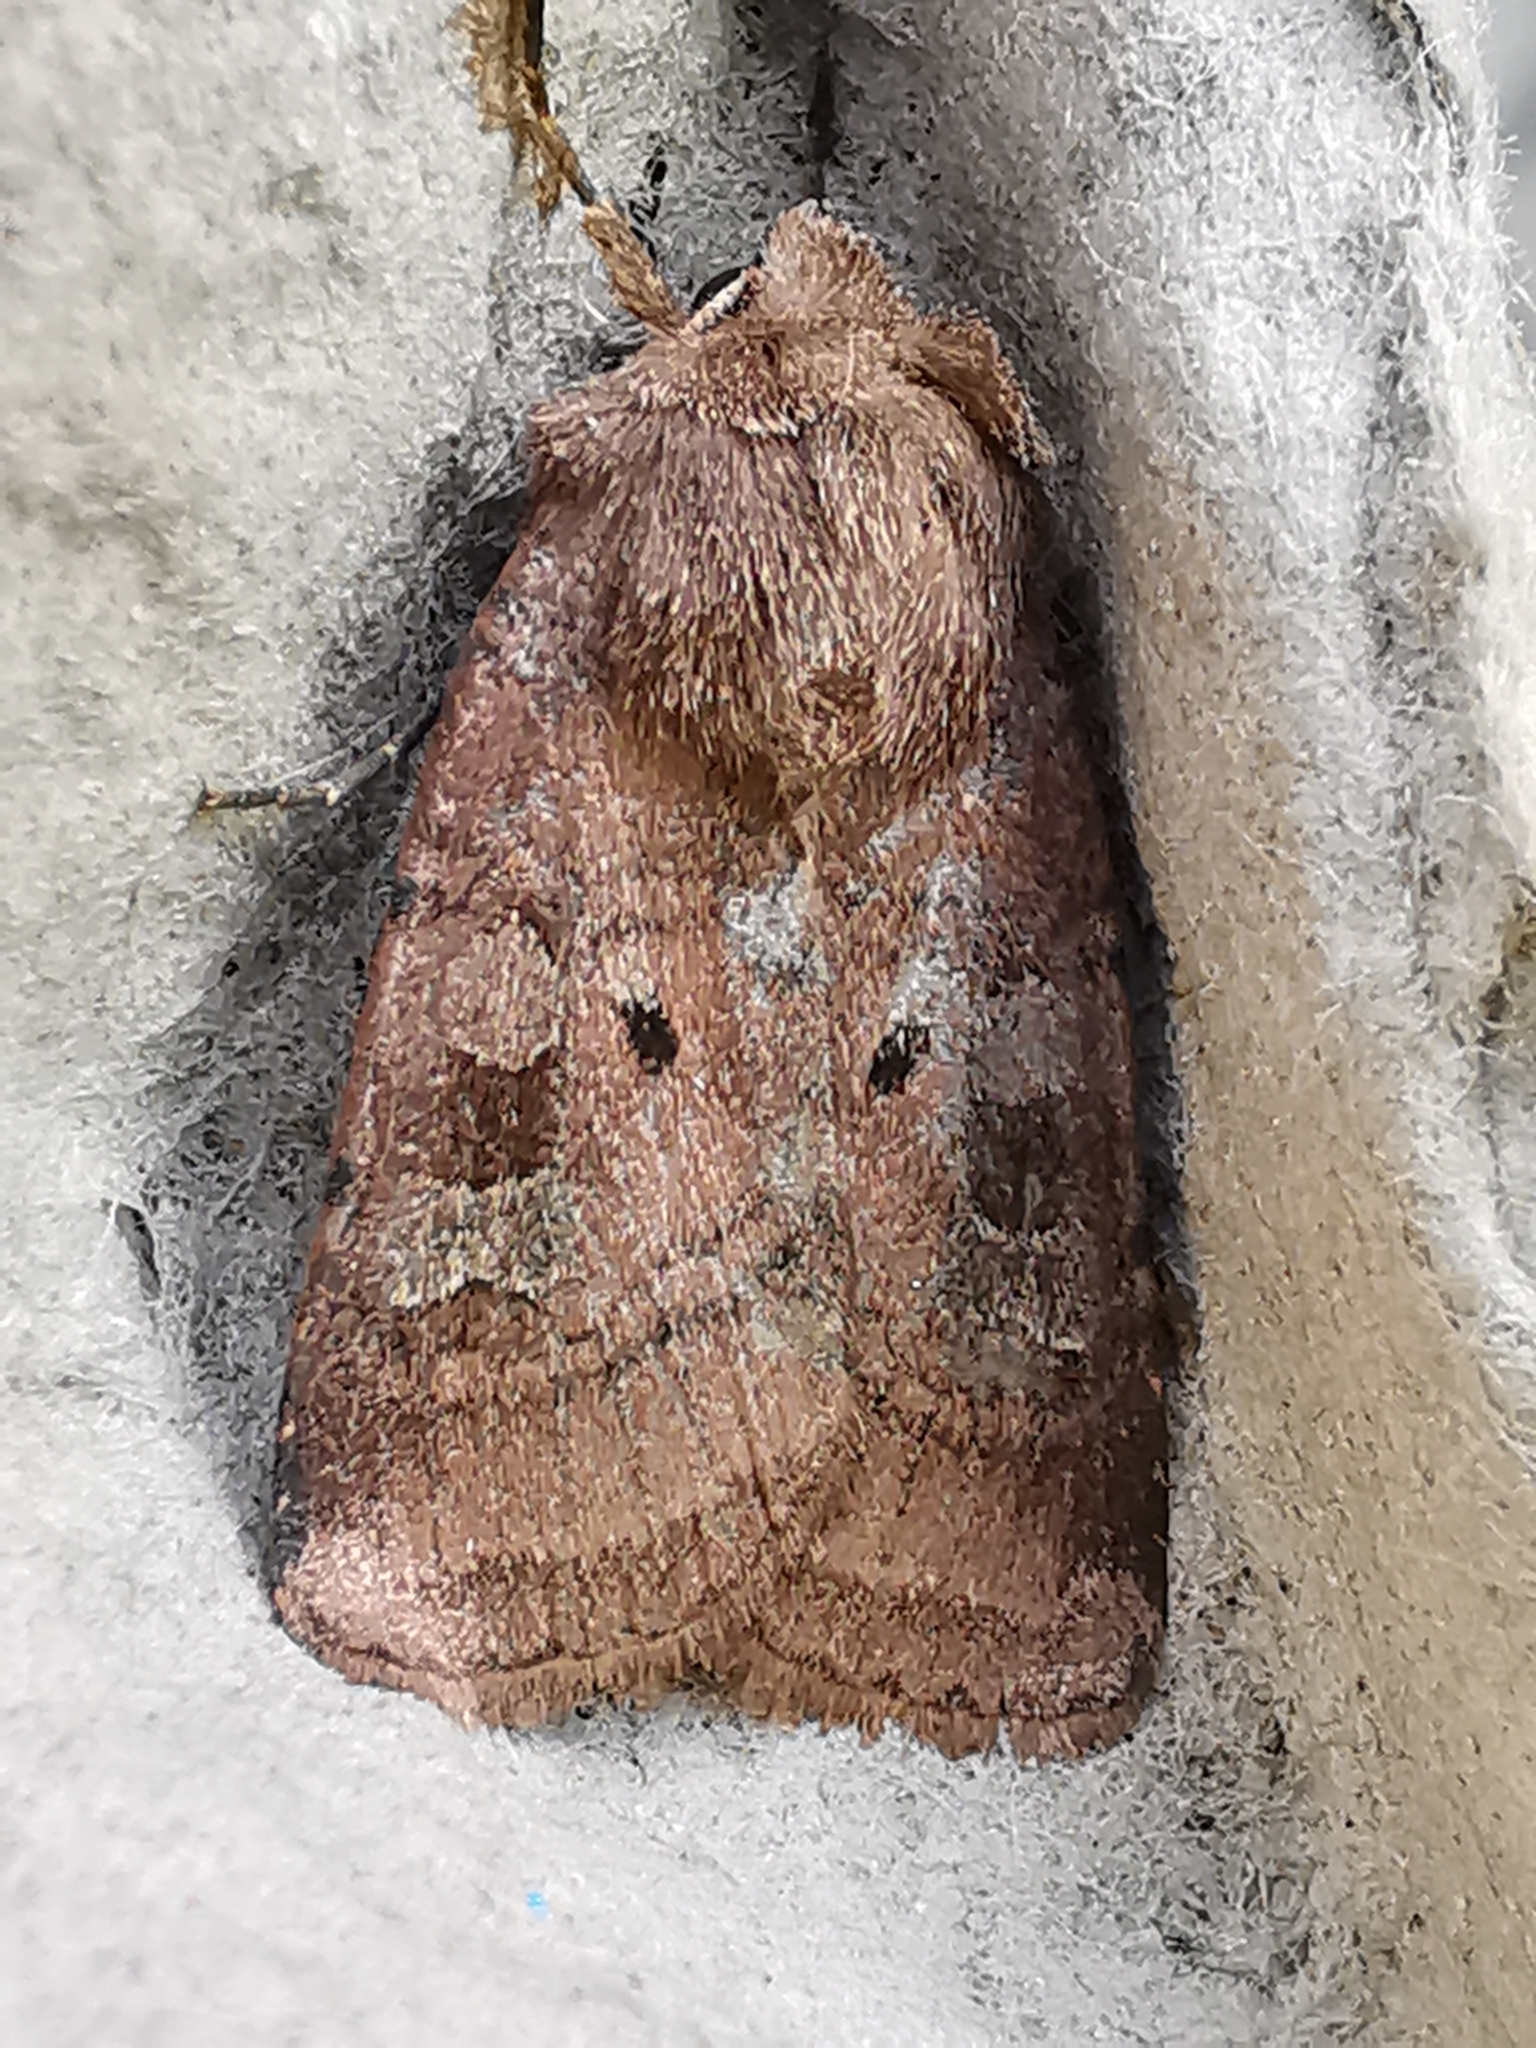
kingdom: Animalia
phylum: Arthropoda
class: Insecta
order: Lepidoptera
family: Noctuidae
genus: Diarsia
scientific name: Diarsia rubi
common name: Small square-spot
